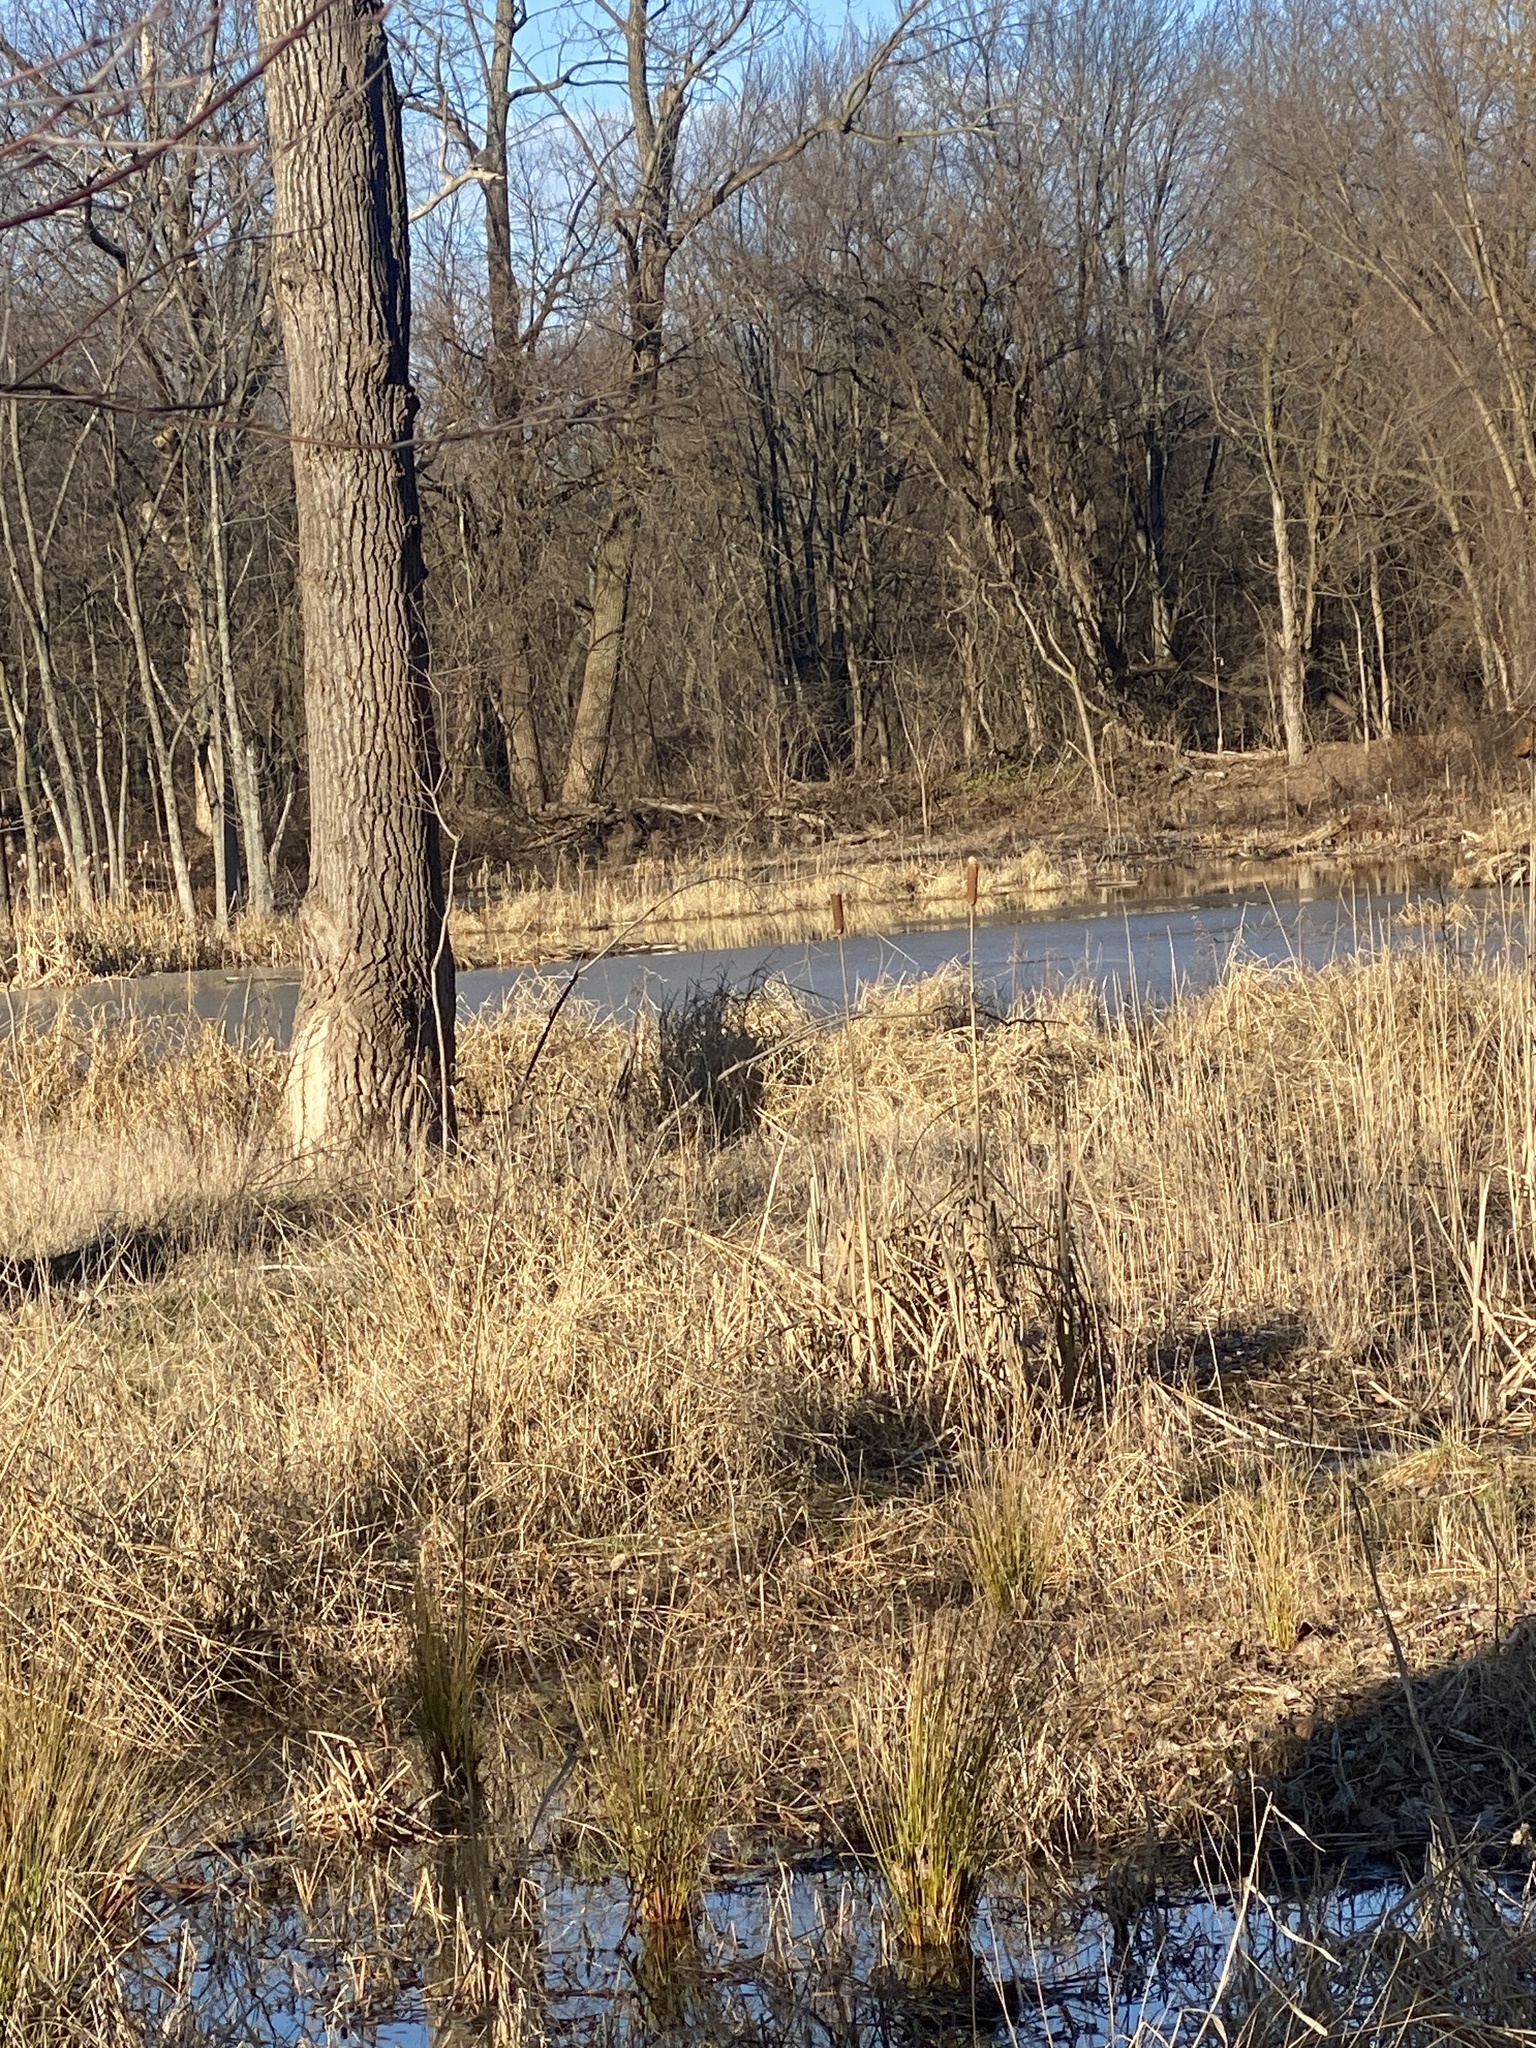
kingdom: Plantae
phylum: Tracheophyta
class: Magnoliopsida
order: Fagales
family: Betulaceae
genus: Betula
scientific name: Betula populifolia
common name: Fire birch
